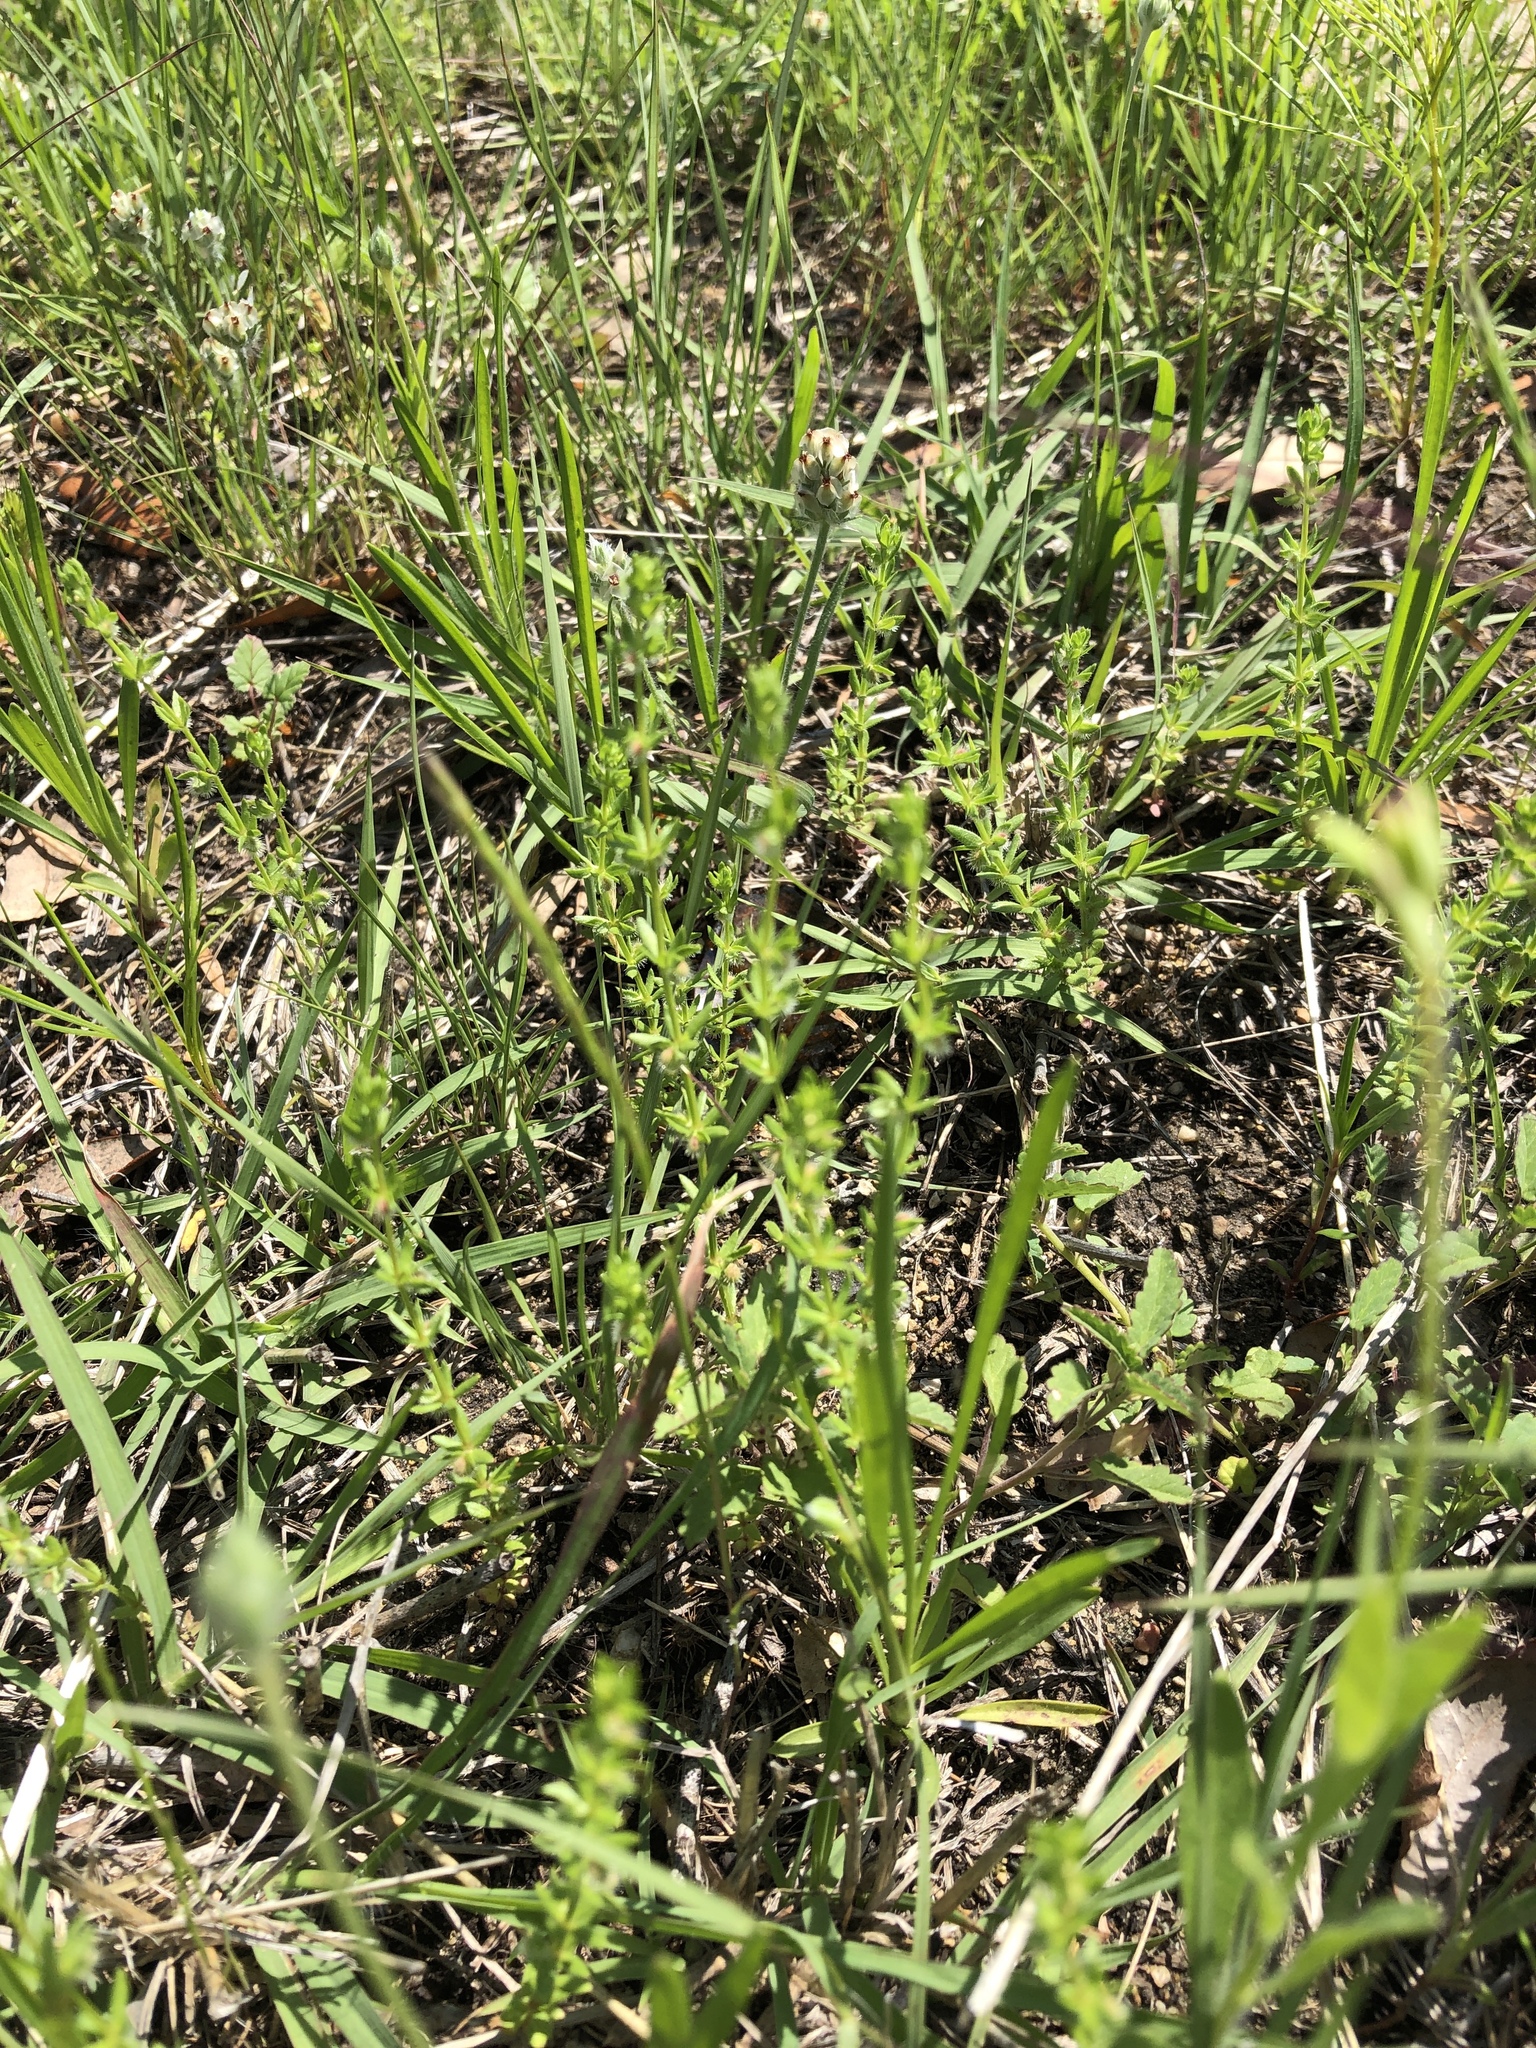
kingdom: Plantae
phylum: Tracheophyta
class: Magnoliopsida
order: Gentianales
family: Rubiaceae
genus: Galium
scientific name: Galium virgatum
